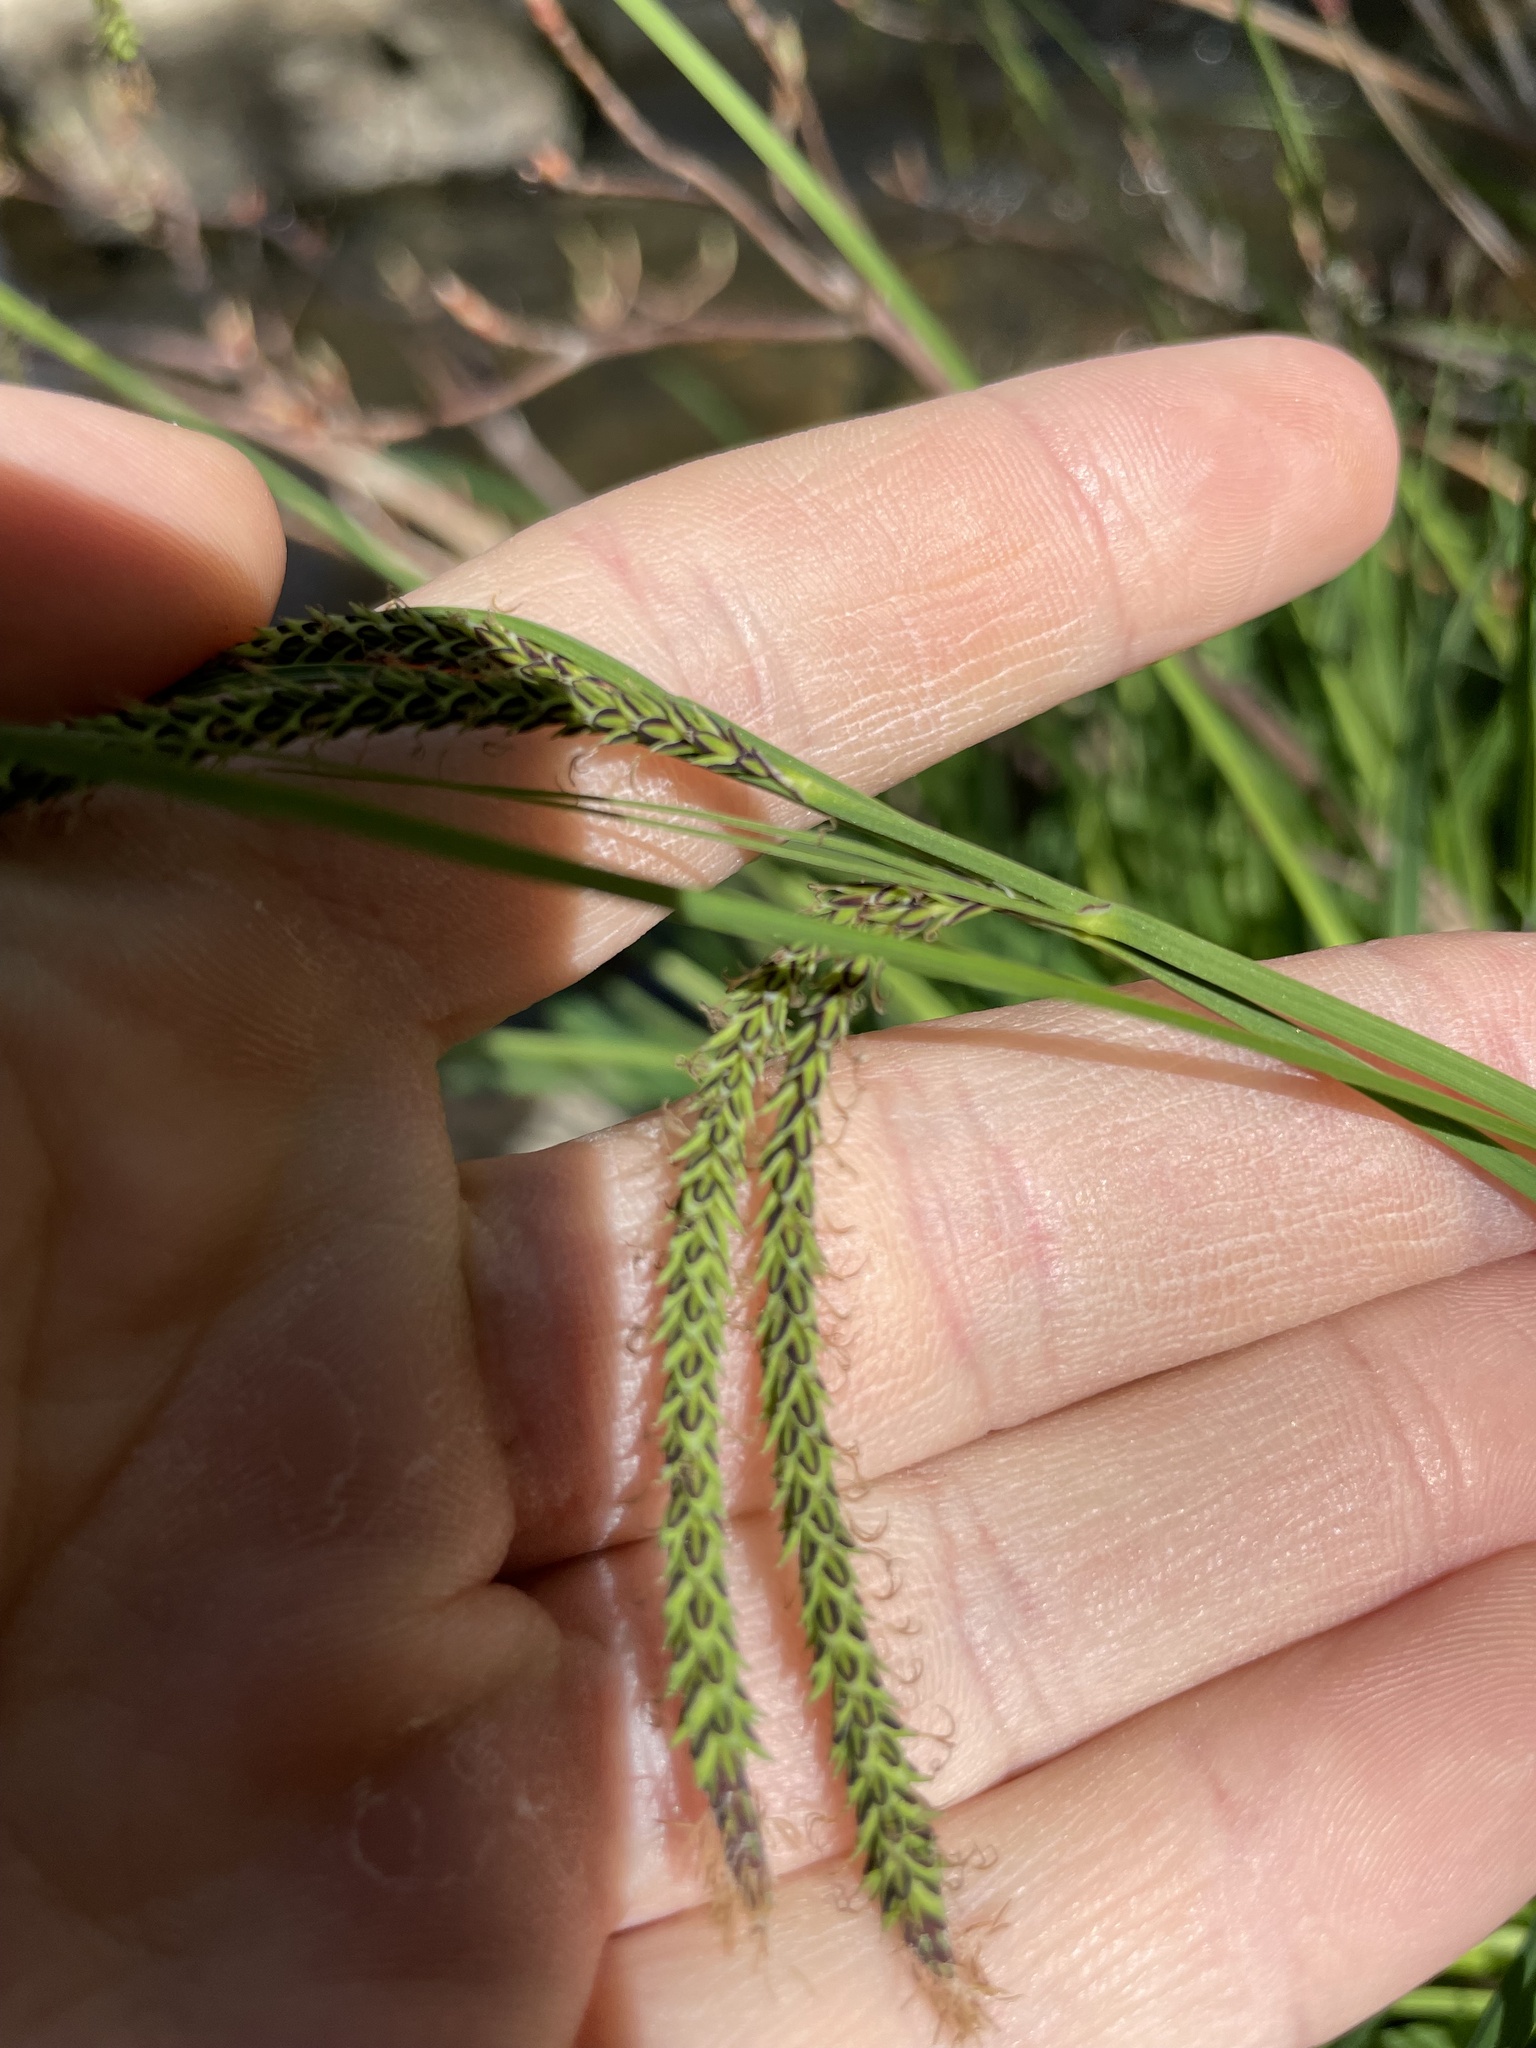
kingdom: Plantae
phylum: Tracheophyta
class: Liliopsida
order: Poales
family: Cyperaceae
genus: Carex
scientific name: Carex torta
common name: Twisted sedge
